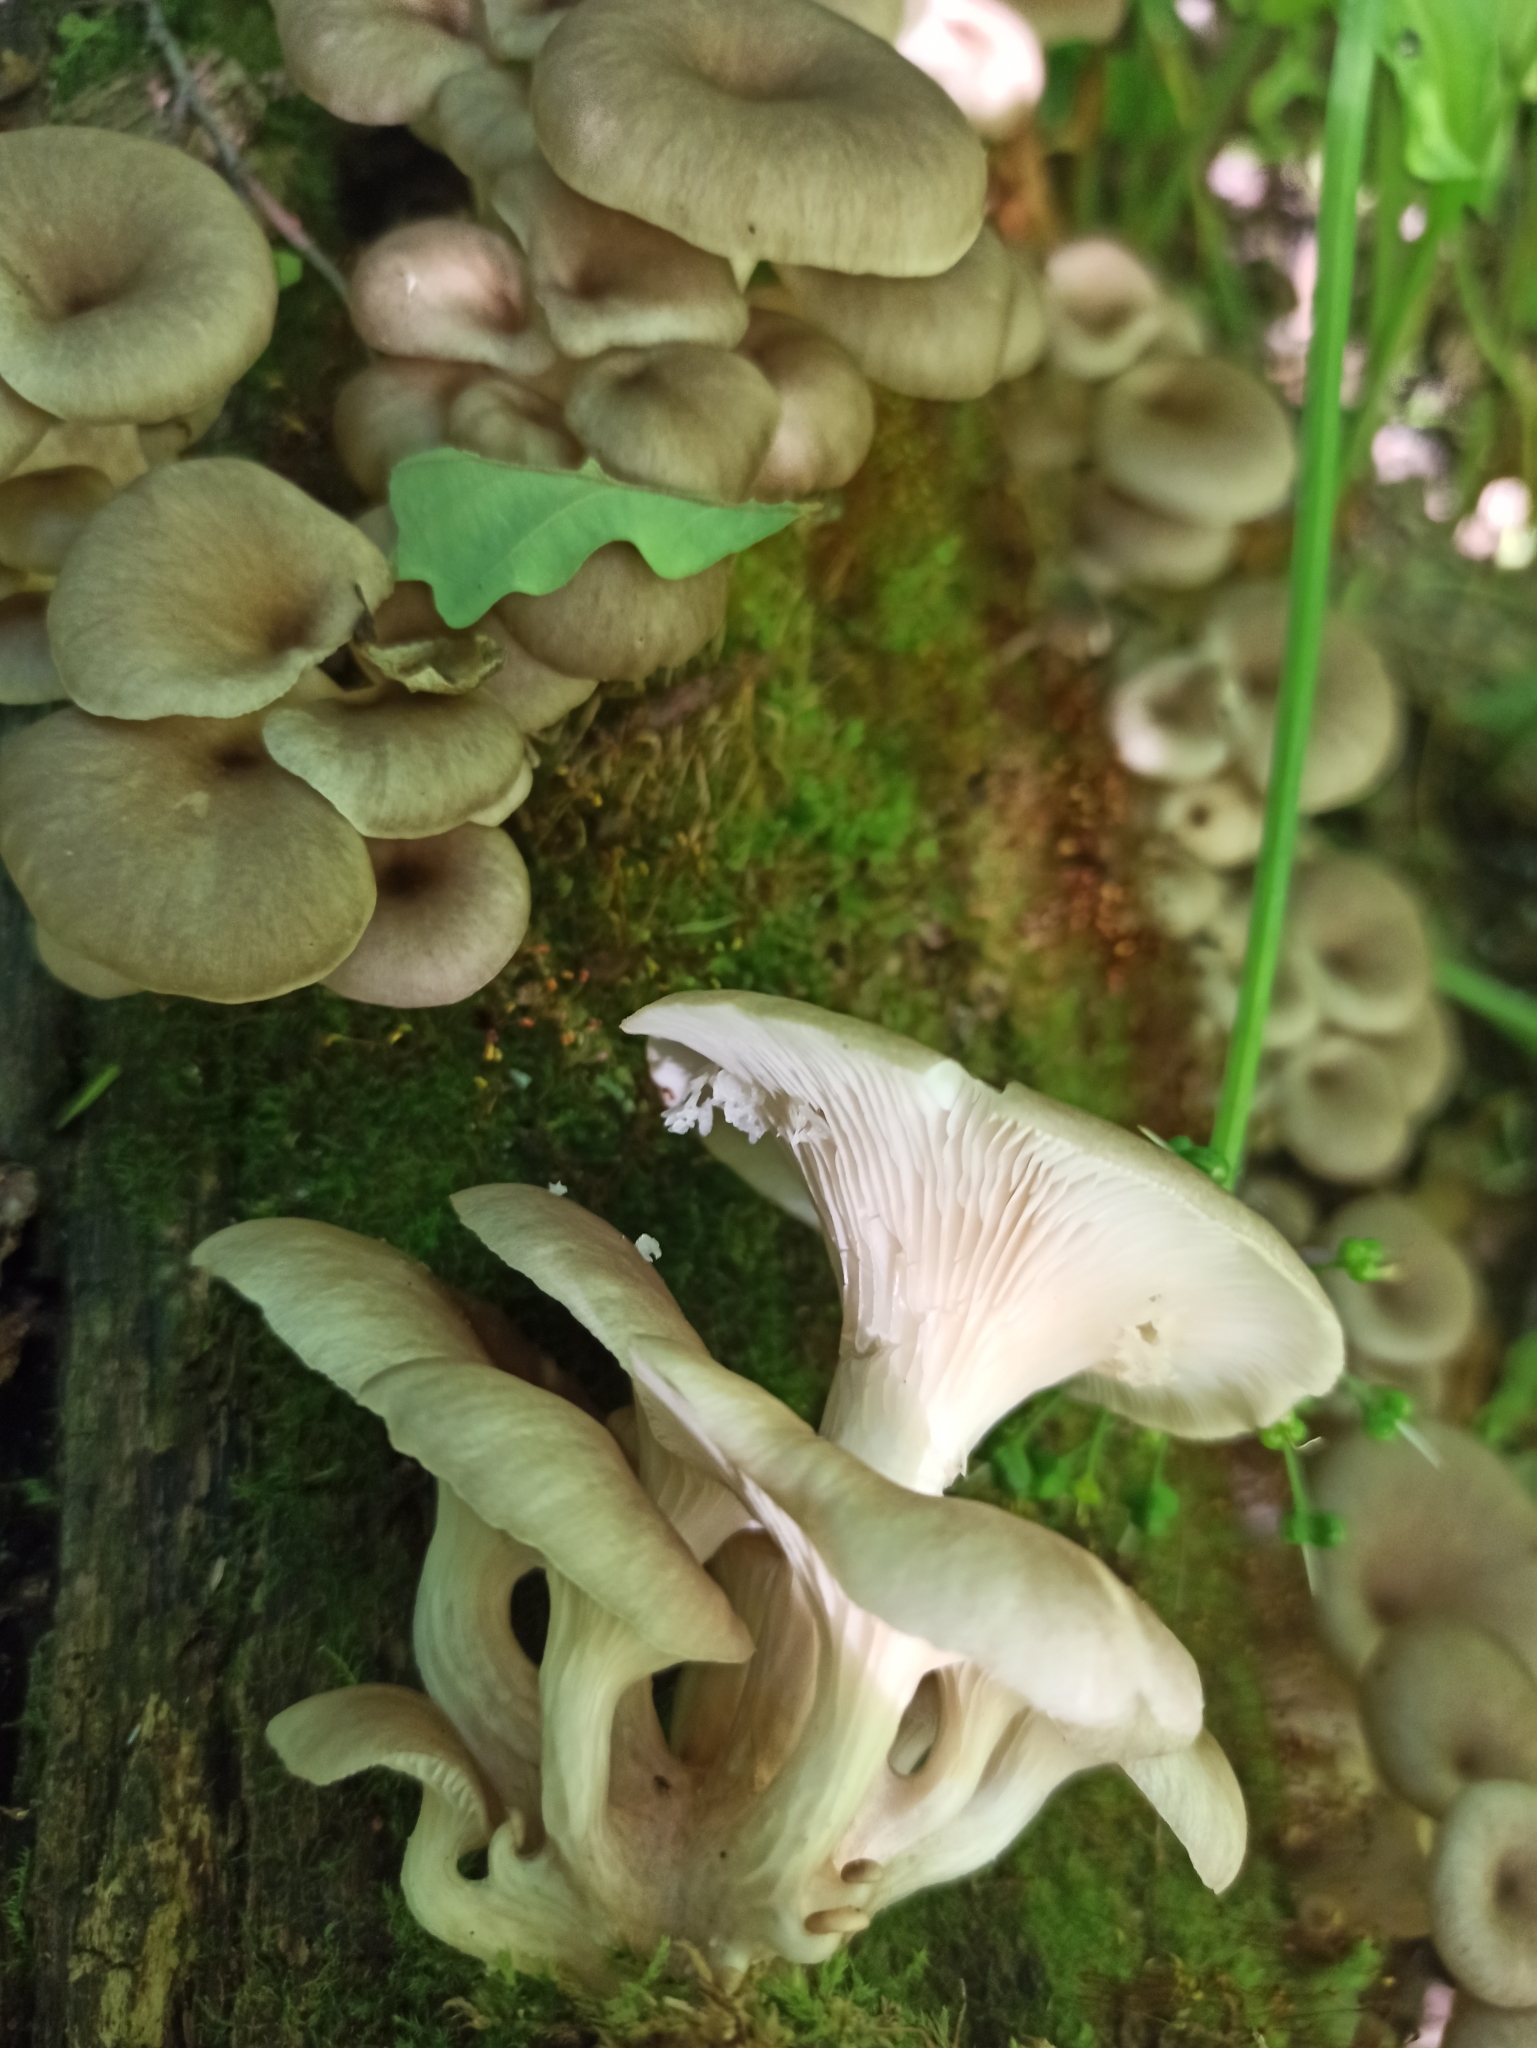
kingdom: Fungi
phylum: Basidiomycota
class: Agaricomycetes
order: Agaricales
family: Pleurotaceae
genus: Pleurotus
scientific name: Pleurotus cornucopiae
